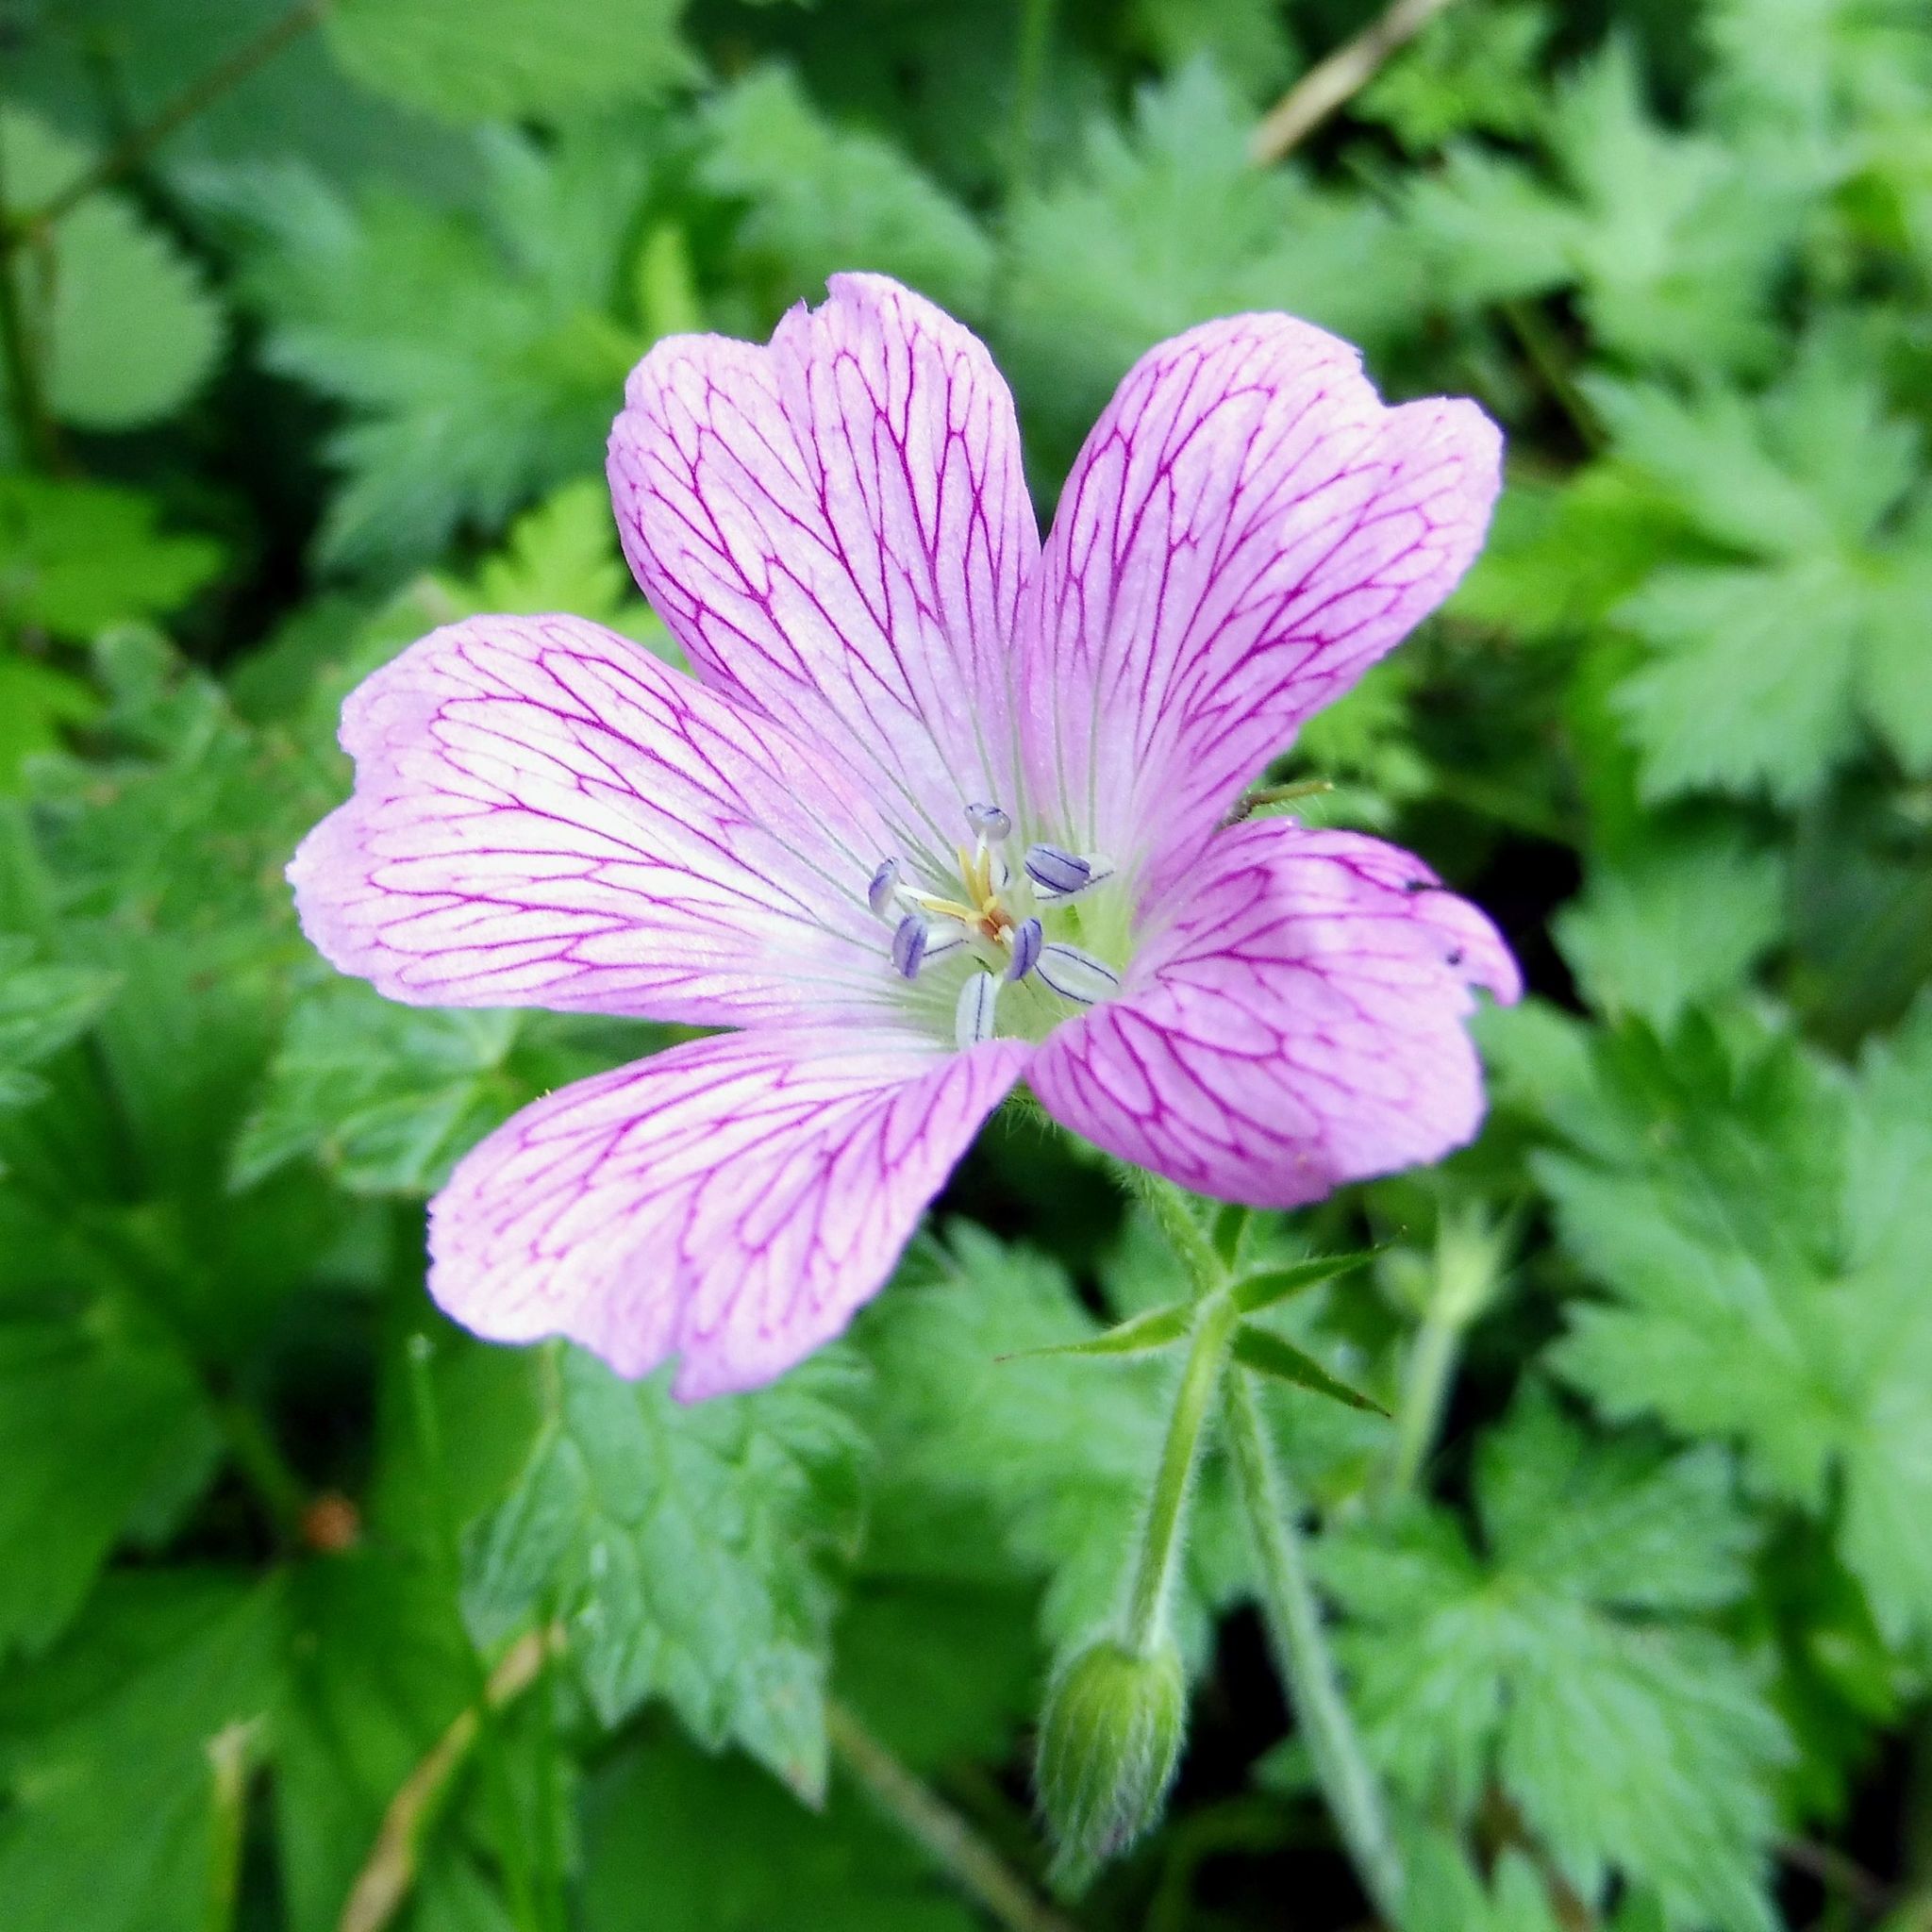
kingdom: Plantae
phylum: Tracheophyta
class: Magnoliopsida
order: Geraniales
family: Geraniaceae
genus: Geranium
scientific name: Geranium oxonianum
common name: Druce's crane's-bill
